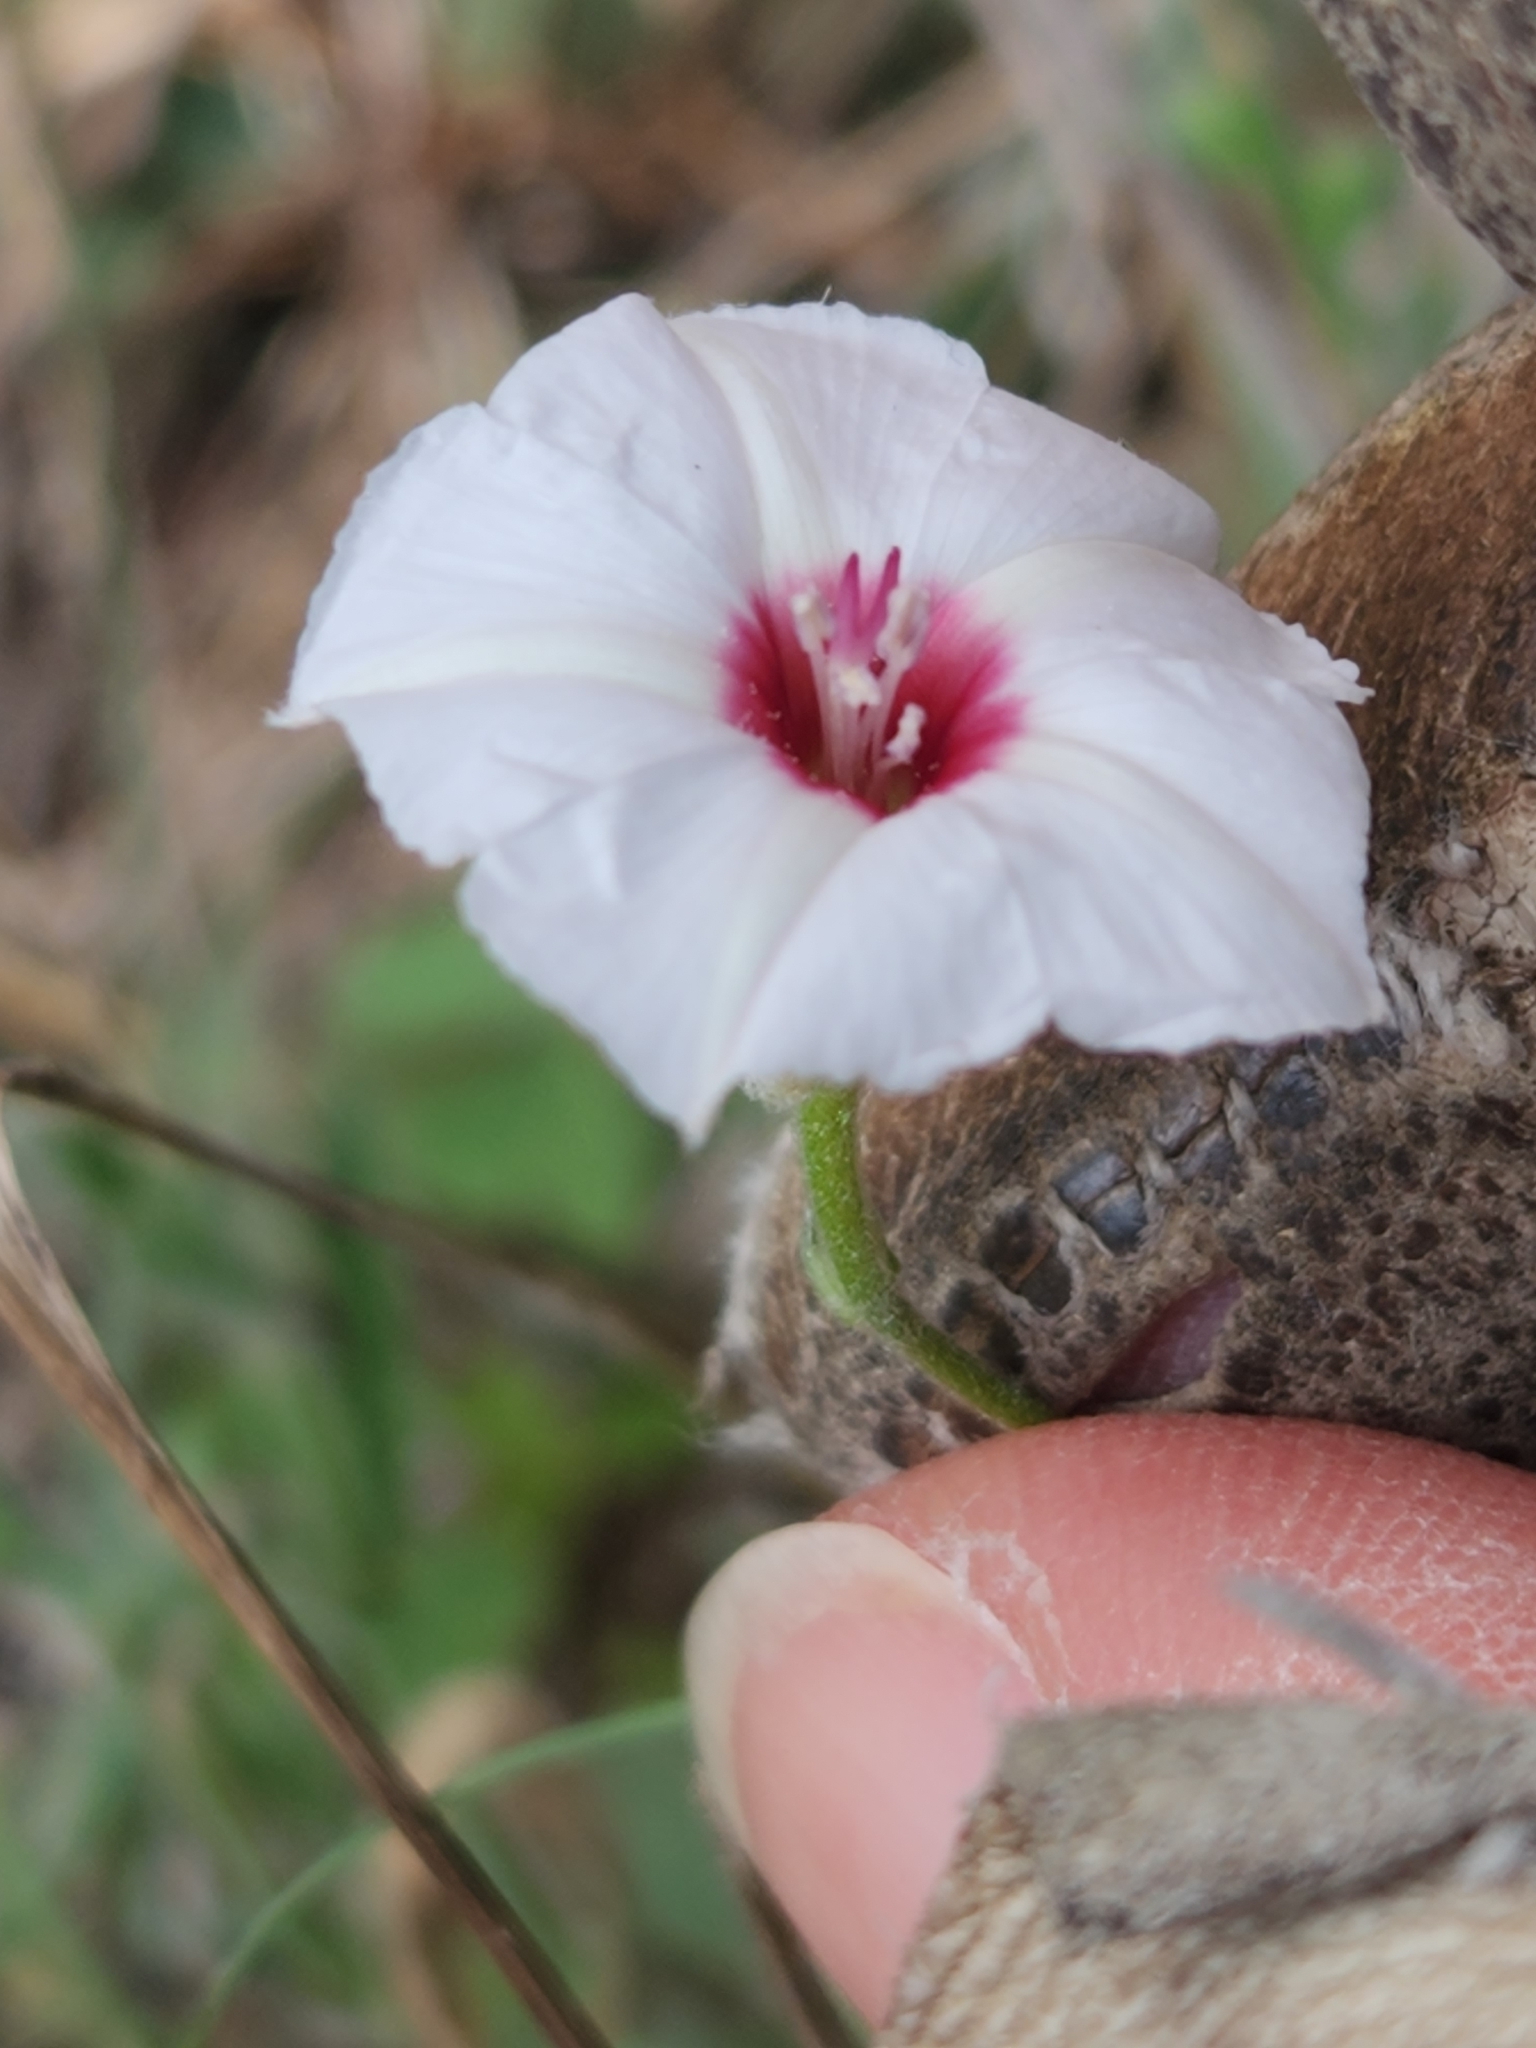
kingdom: Plantae
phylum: Tracheophyta
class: Magnoliopsida
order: Solanales
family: Convolvulaceae
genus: Convolvulus
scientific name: Convolvulus equitans
